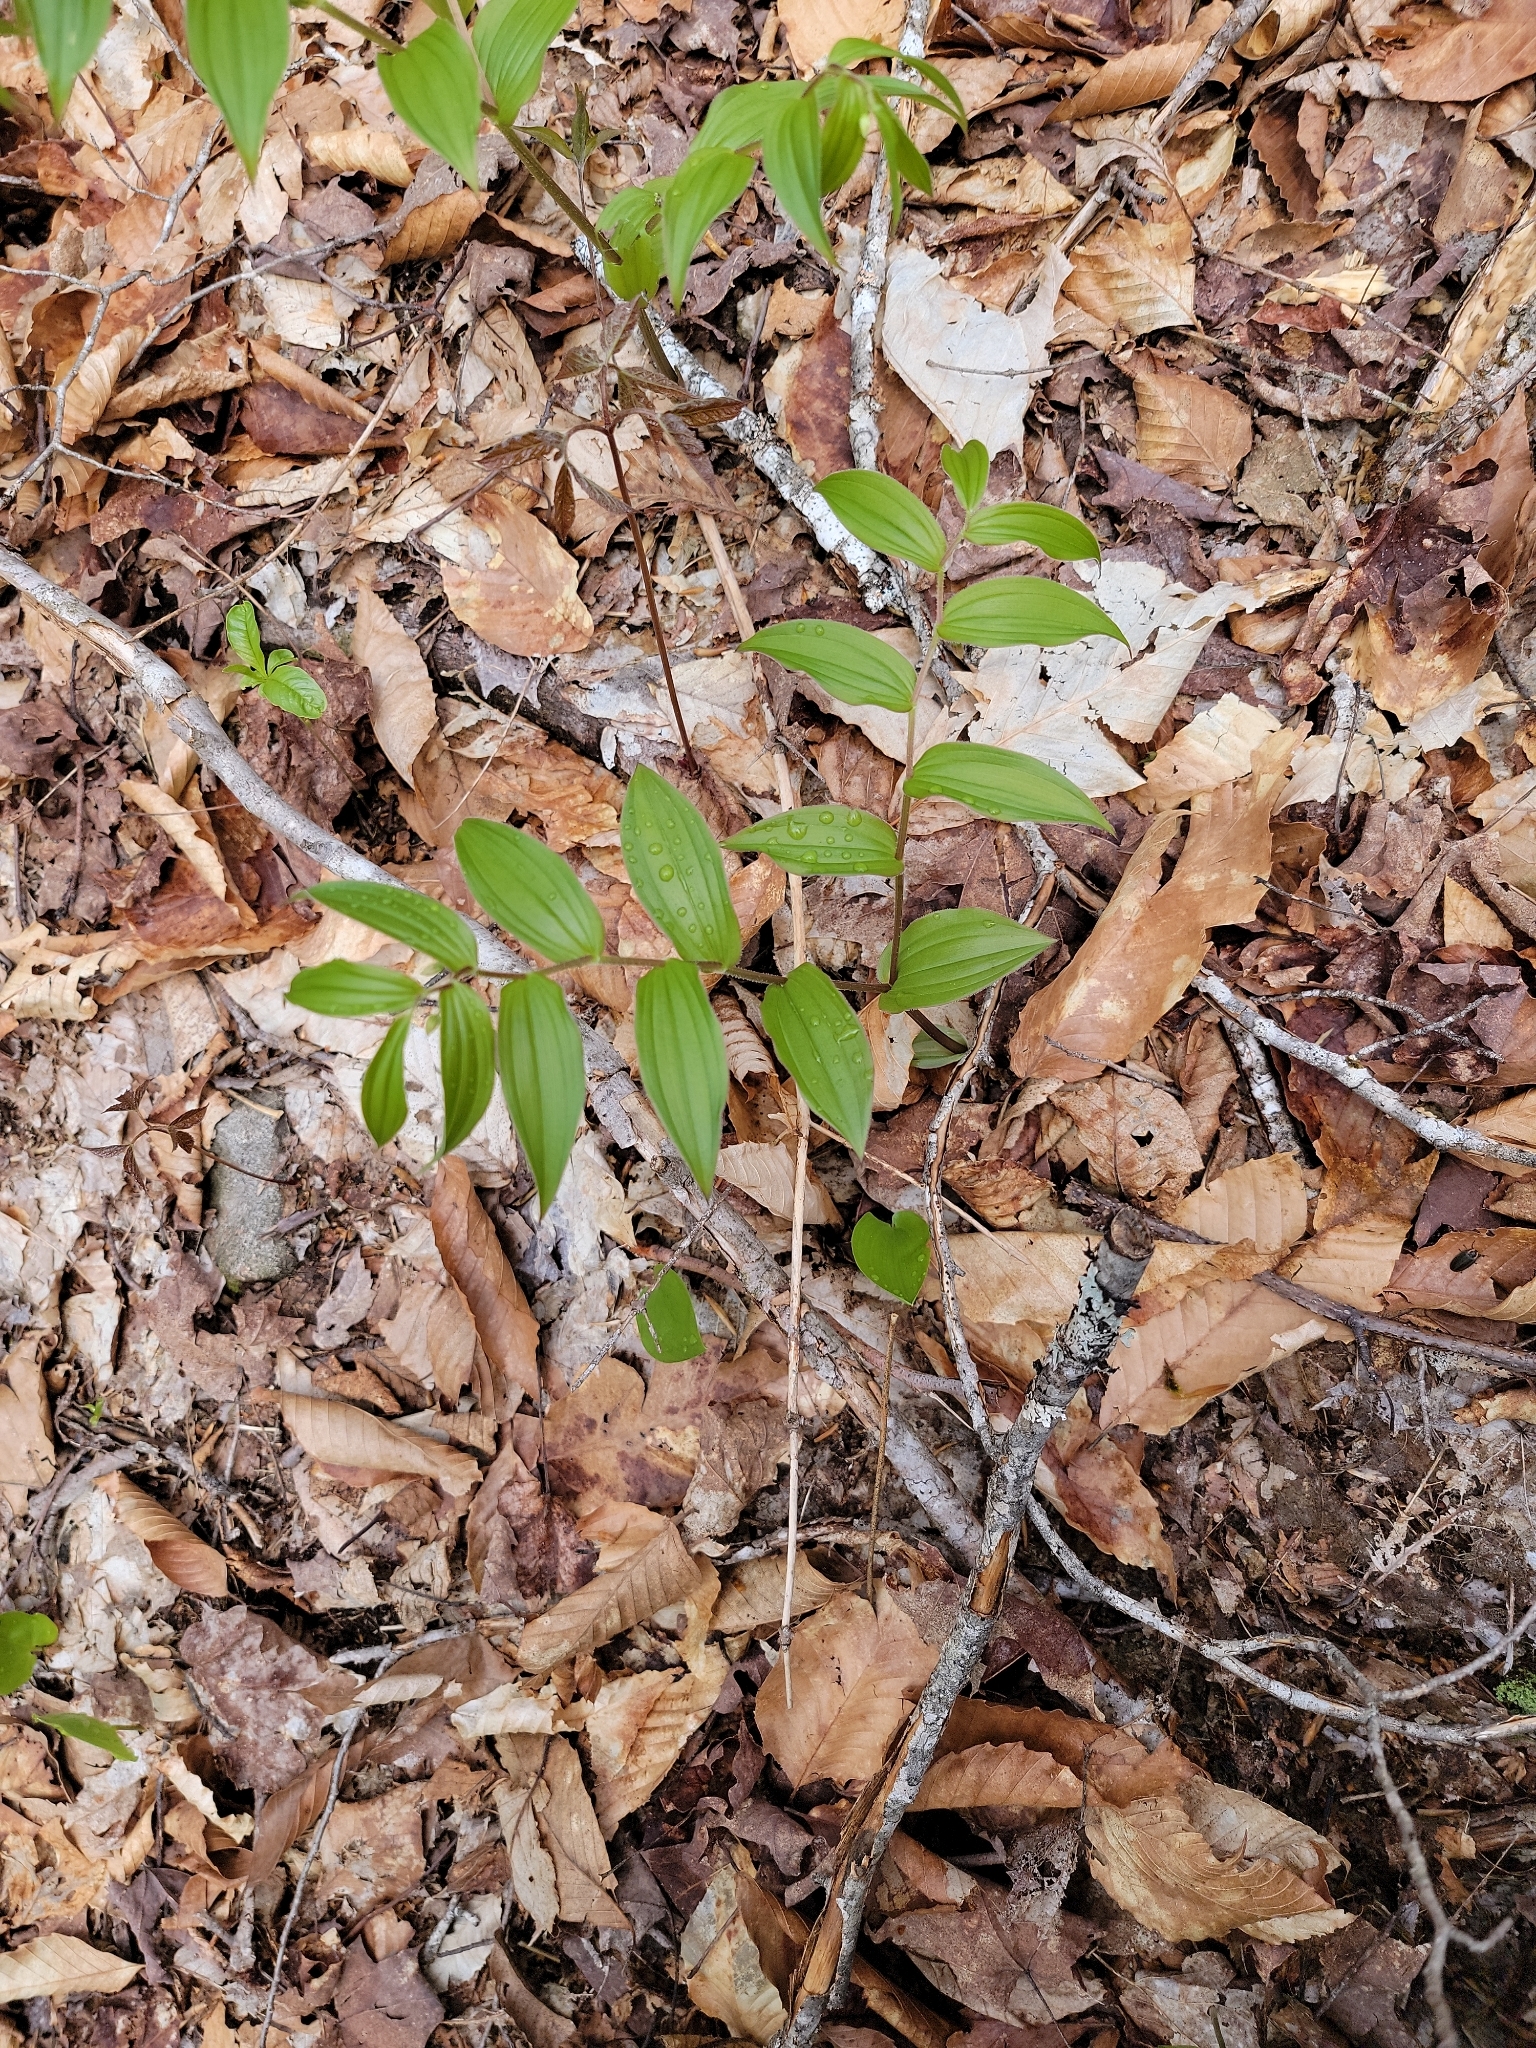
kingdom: Plantae
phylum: Tracheophyta
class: Liliopsida
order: Liliales
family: Liliaceae
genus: Streptopus
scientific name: Streptopus lanceolatus
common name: Rose mandarin
